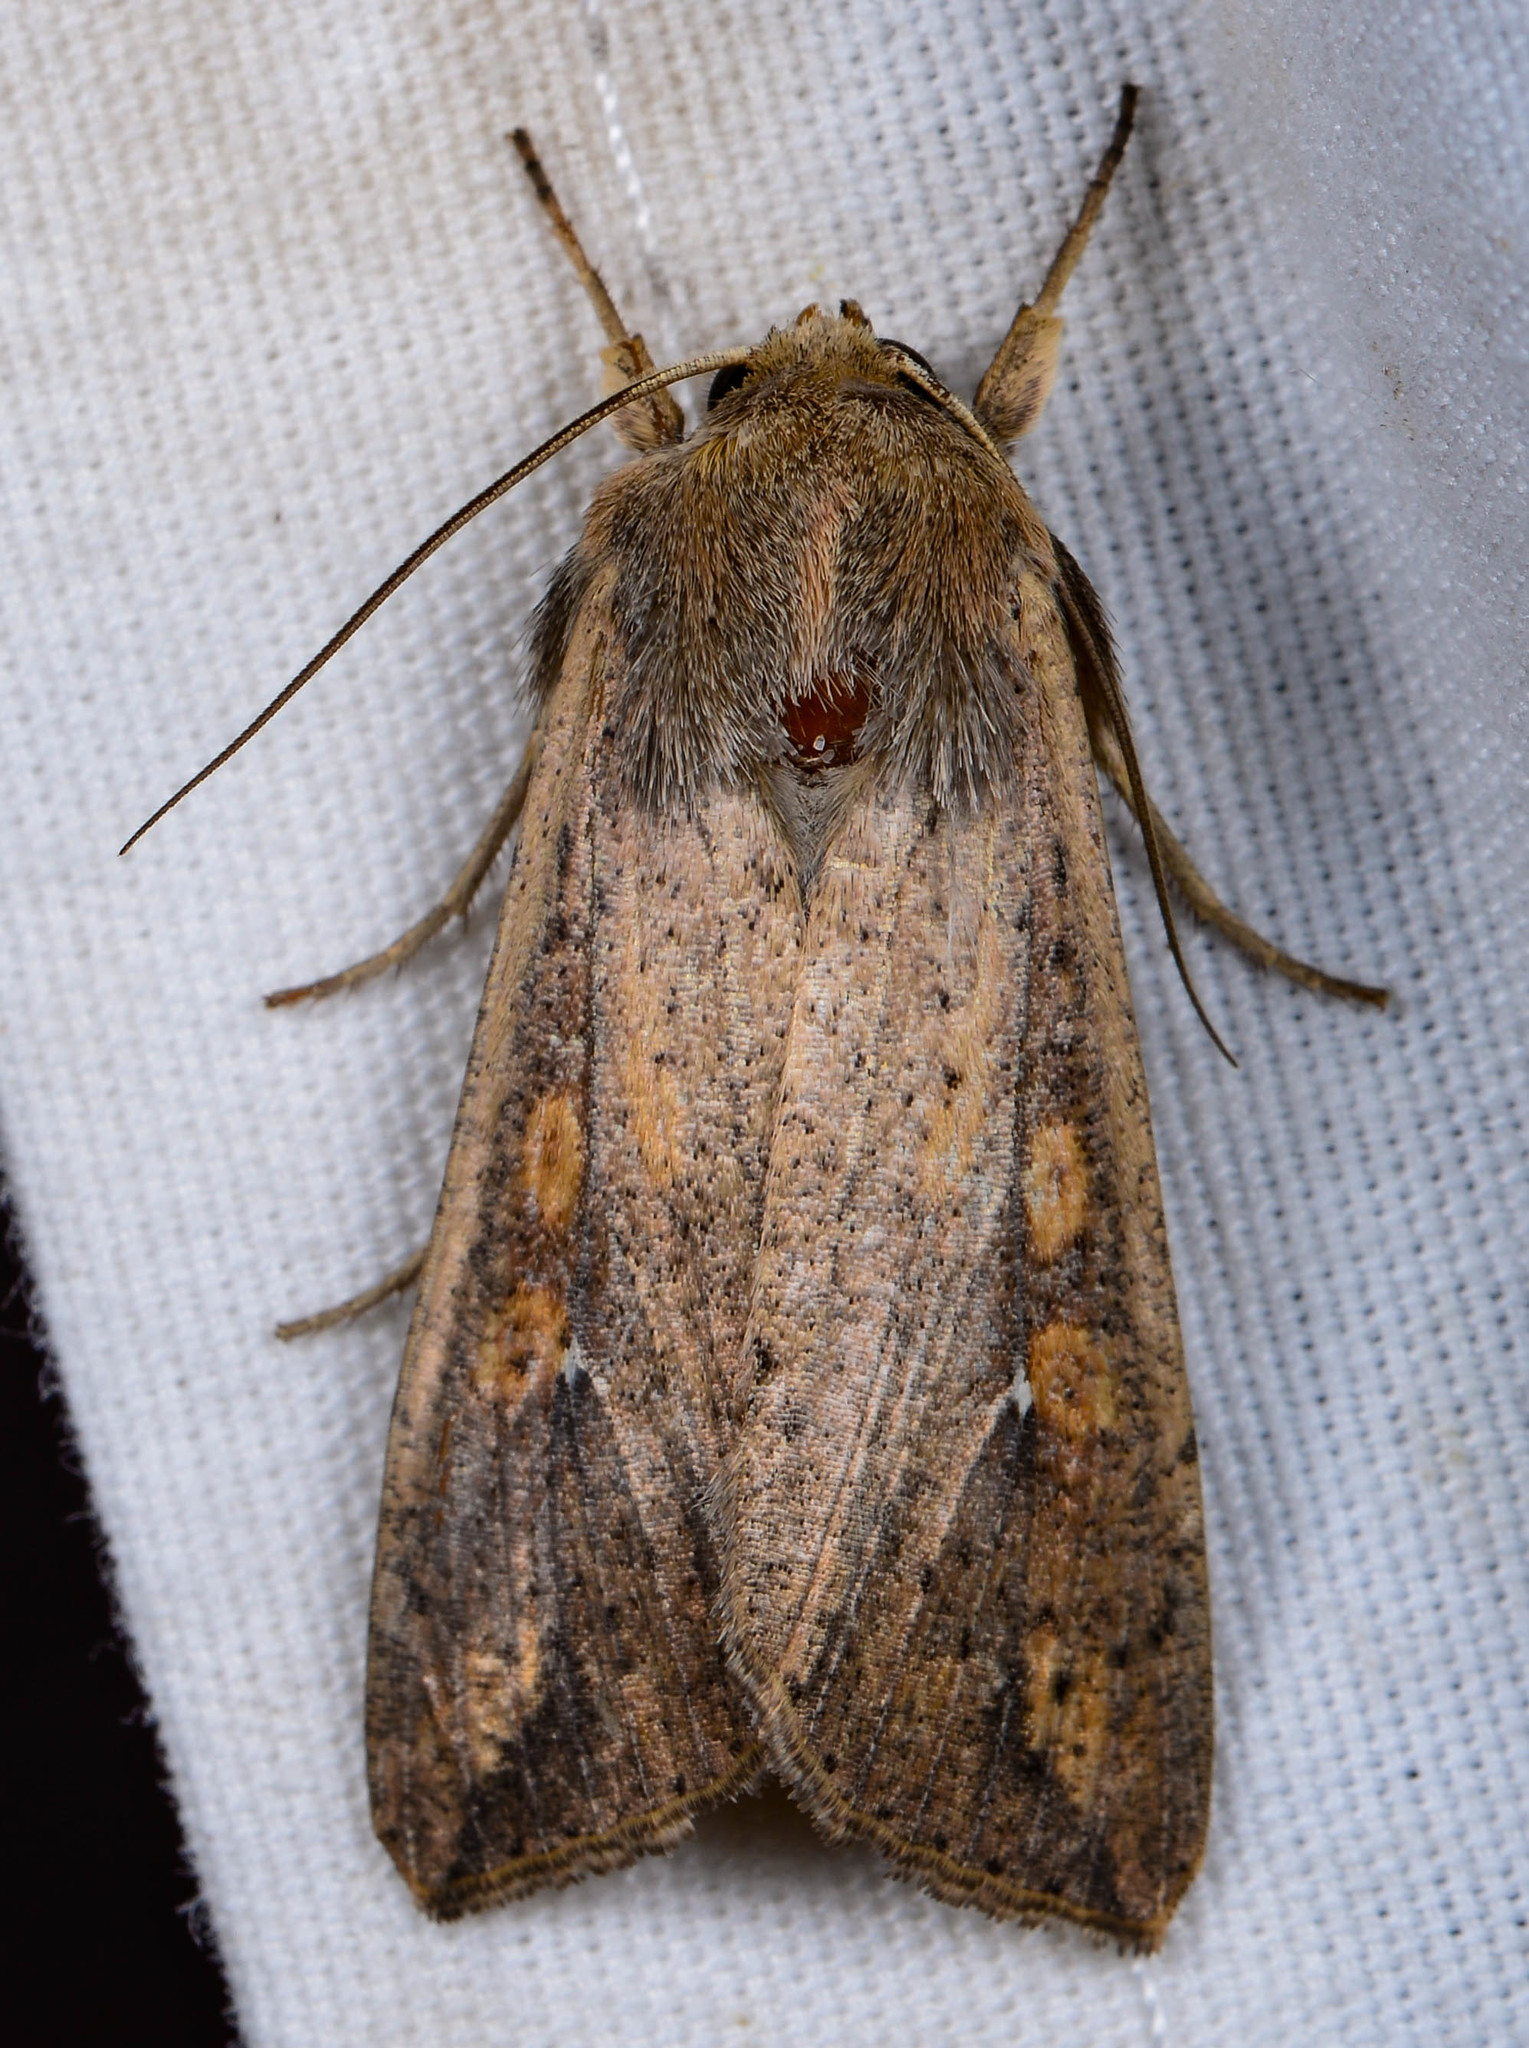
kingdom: Animalia
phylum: Arthropoda
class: Insecta
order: Lepidoptera
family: Noctuidae
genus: Mythimna
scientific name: Mythimna unipuncta
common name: White-speck
